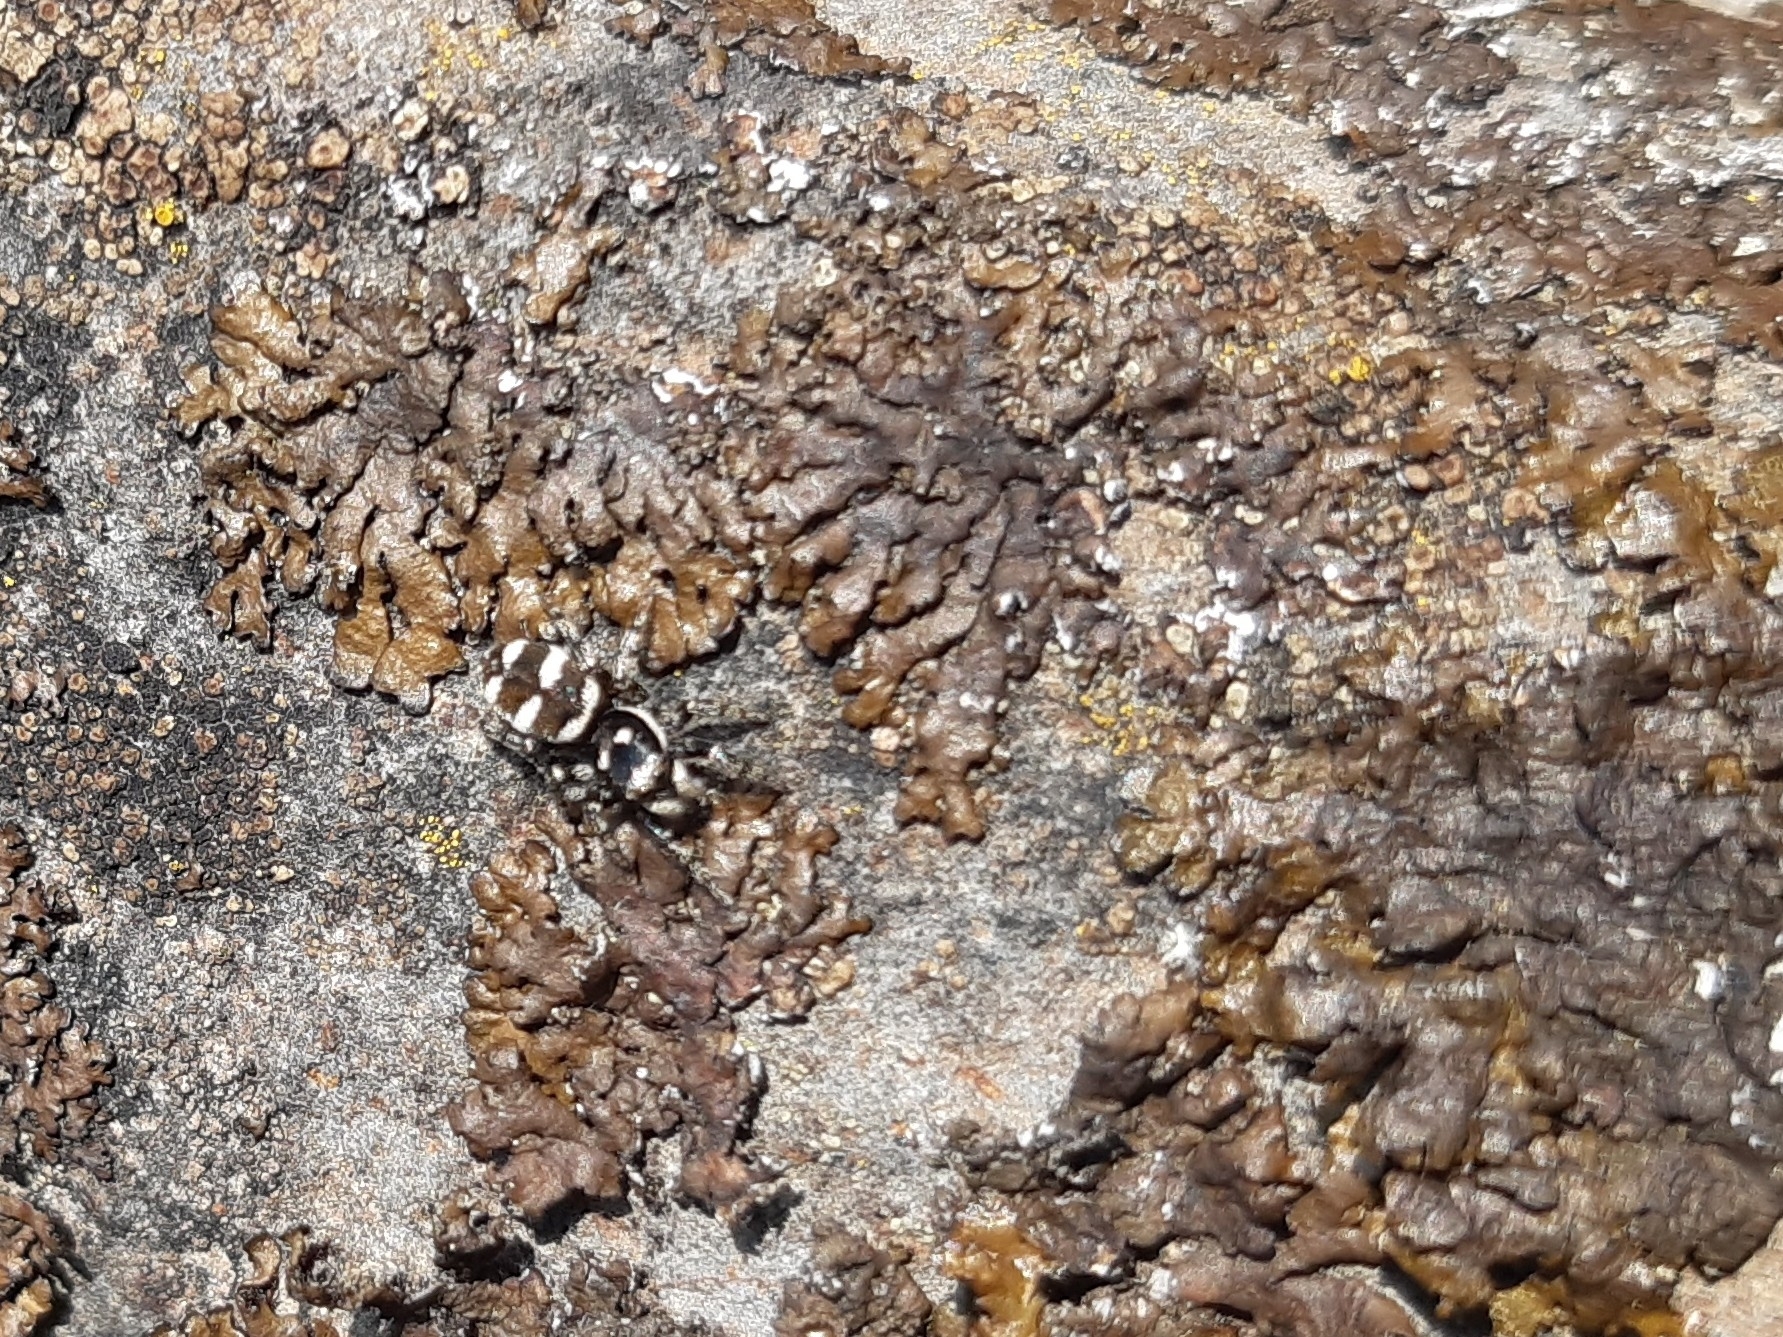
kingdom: Animalia
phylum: Arthropoda
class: Arachnida
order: Araneae
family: Salticidae
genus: Salticus
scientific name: Salticus scenicus
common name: Zebra jumper
